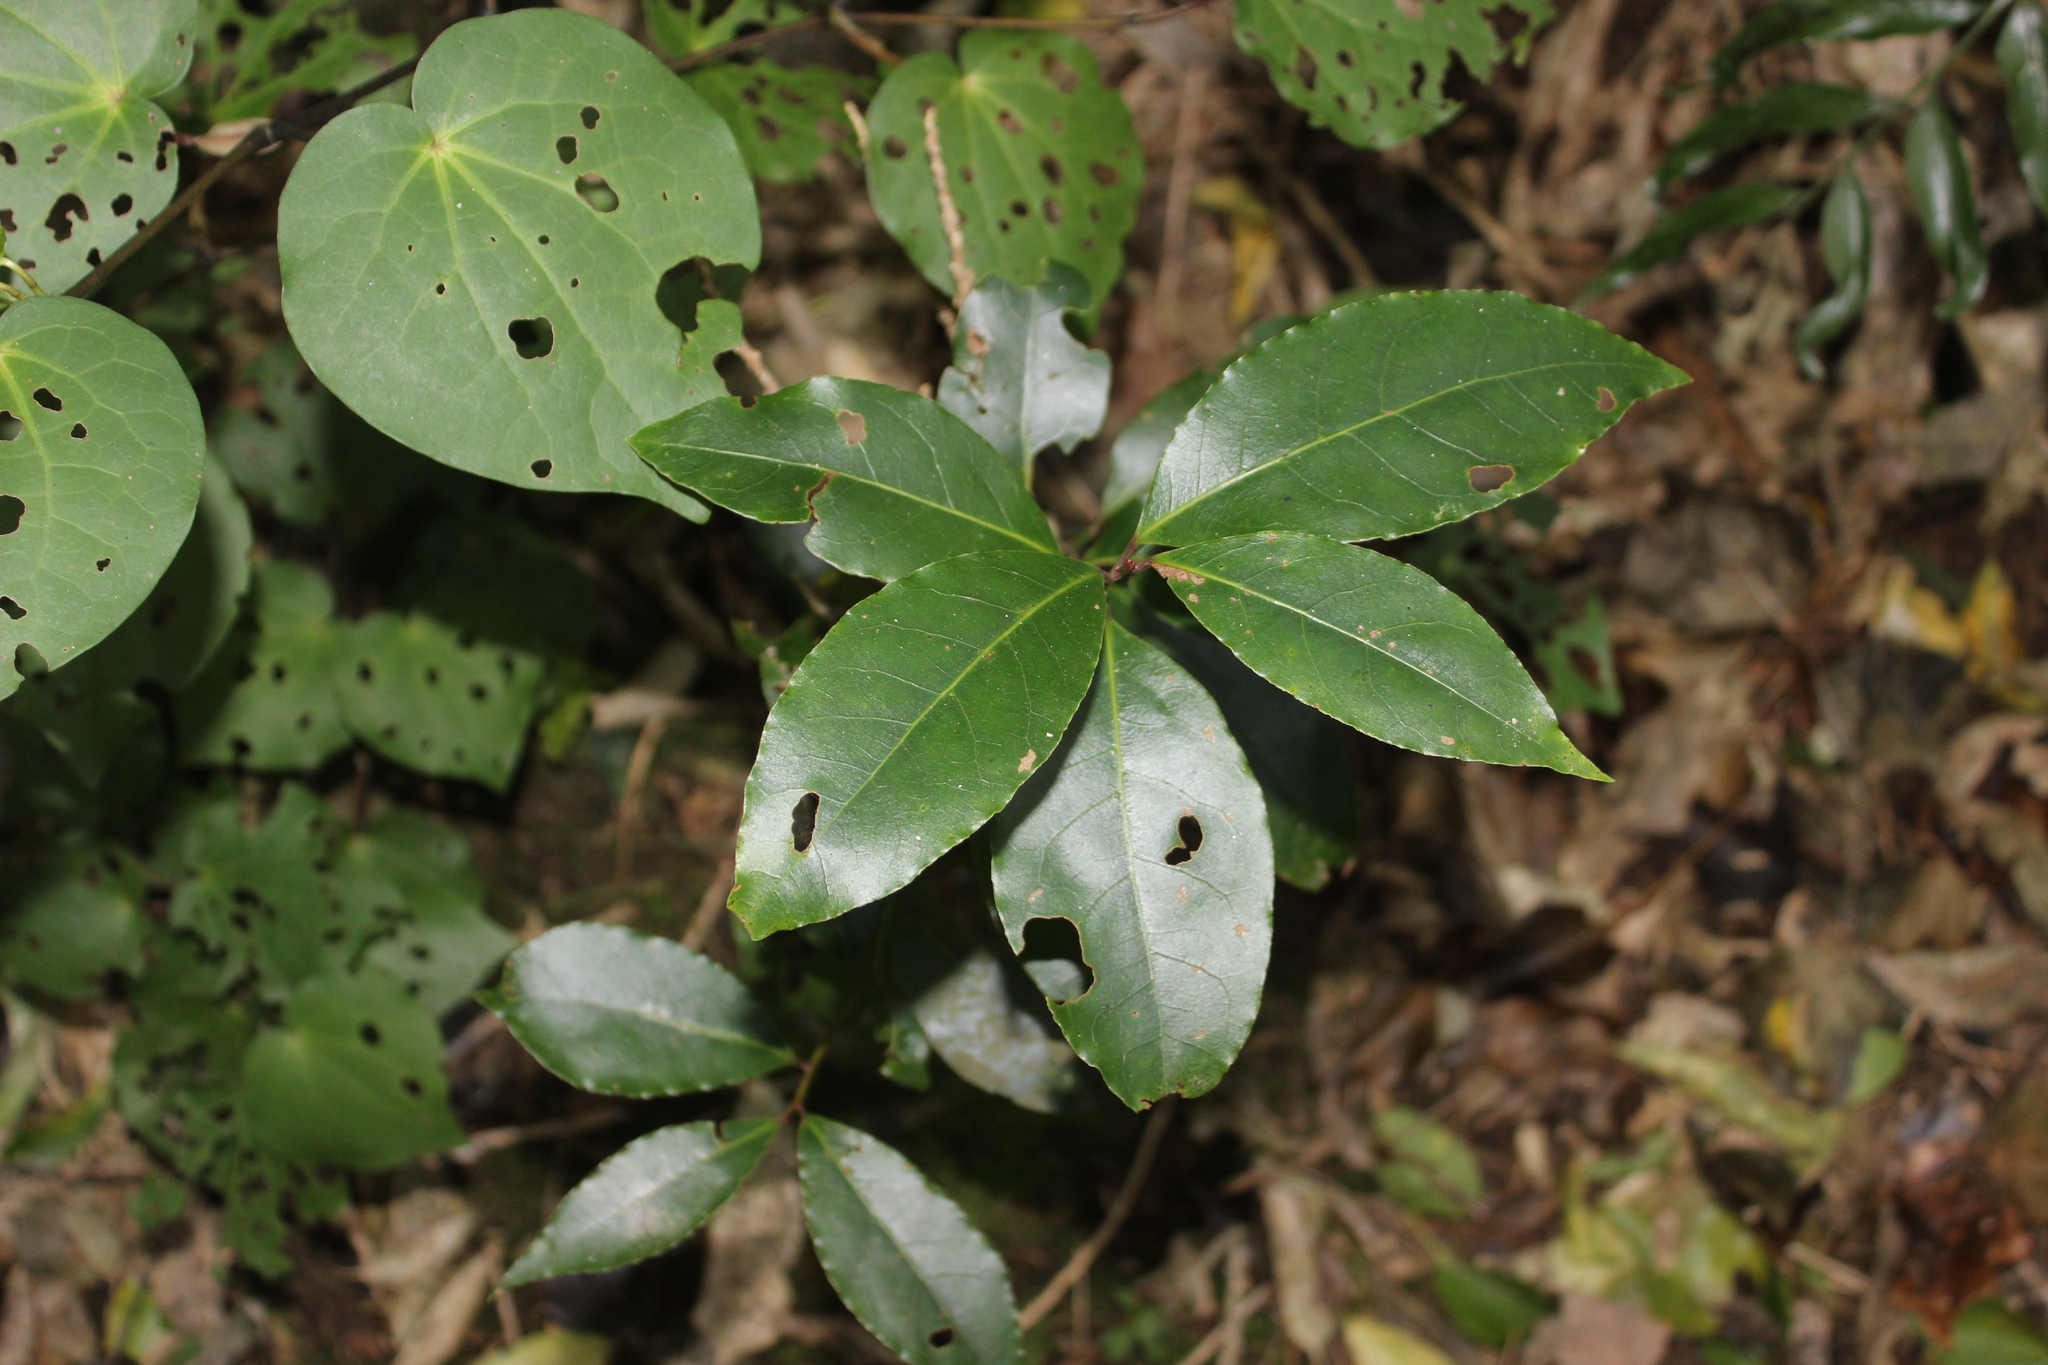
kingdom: Plantae
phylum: Tracheophyta
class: Magnoliopsida
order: Laurales
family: Lauraceae
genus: Laurus
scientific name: Laurus nobilis
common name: Bay
